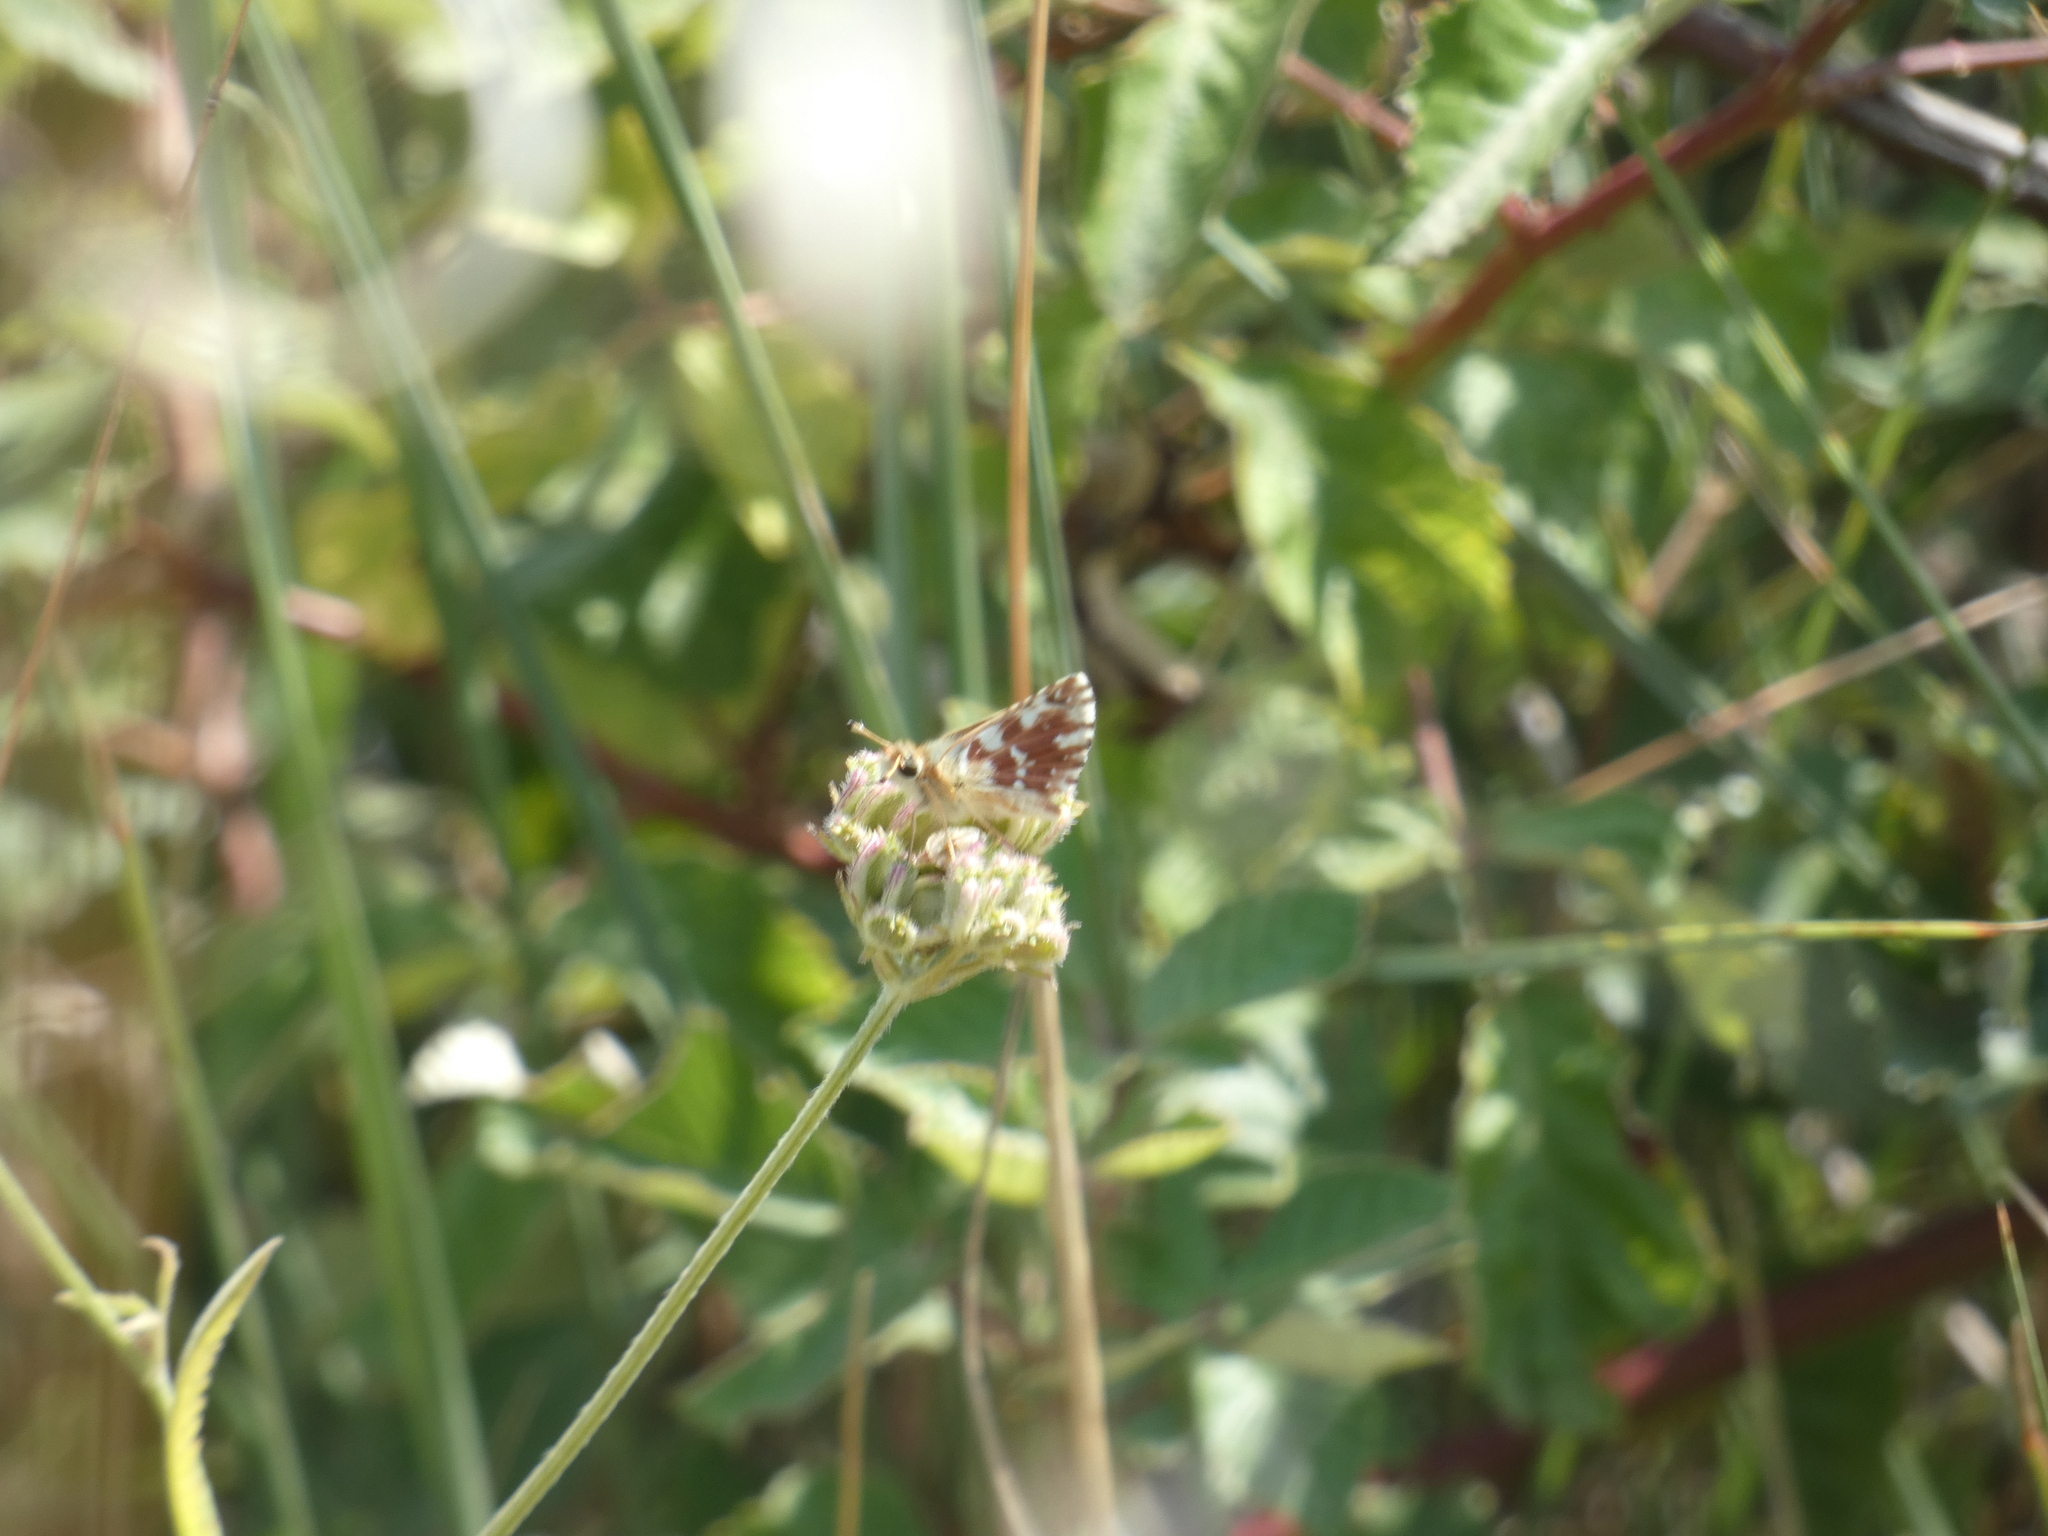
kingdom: Animalia
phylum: Arthropoda
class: Insecta
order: Lepidoptera
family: Hesperiidae
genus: Spialia
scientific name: Spialia sertorius
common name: Red underwing skipper
